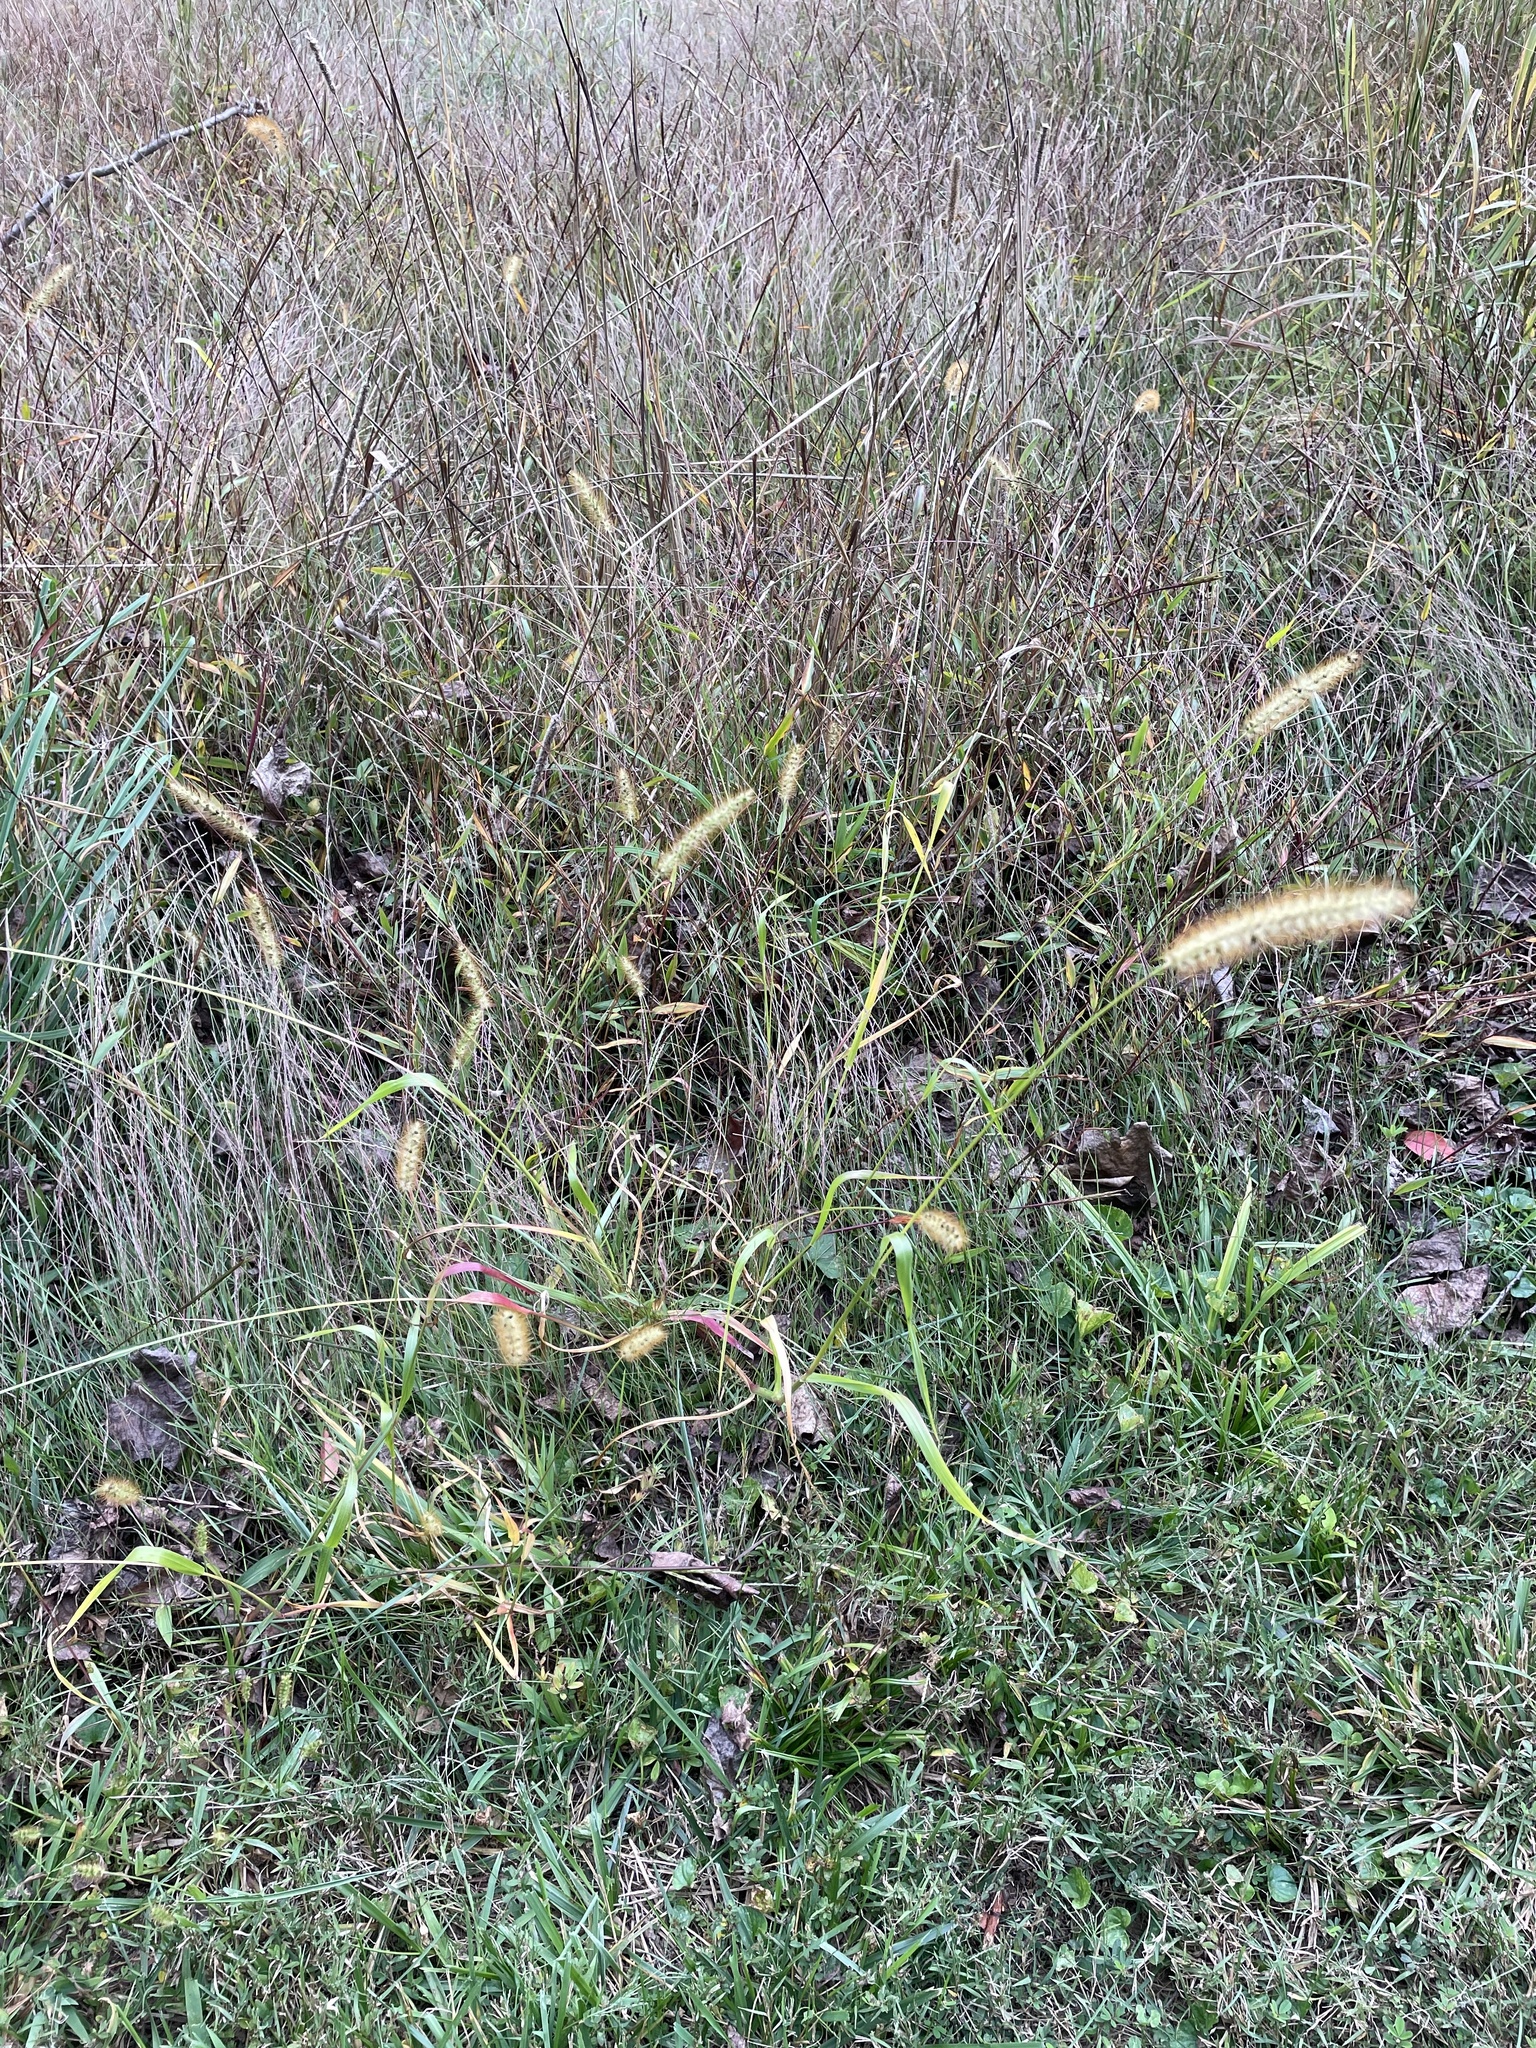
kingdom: Plantae
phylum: Tracheophyta
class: Liliopsida
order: Poales
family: Poaceae
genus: Setaria
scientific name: Setaria pumila
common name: Yellow bristle-grass
